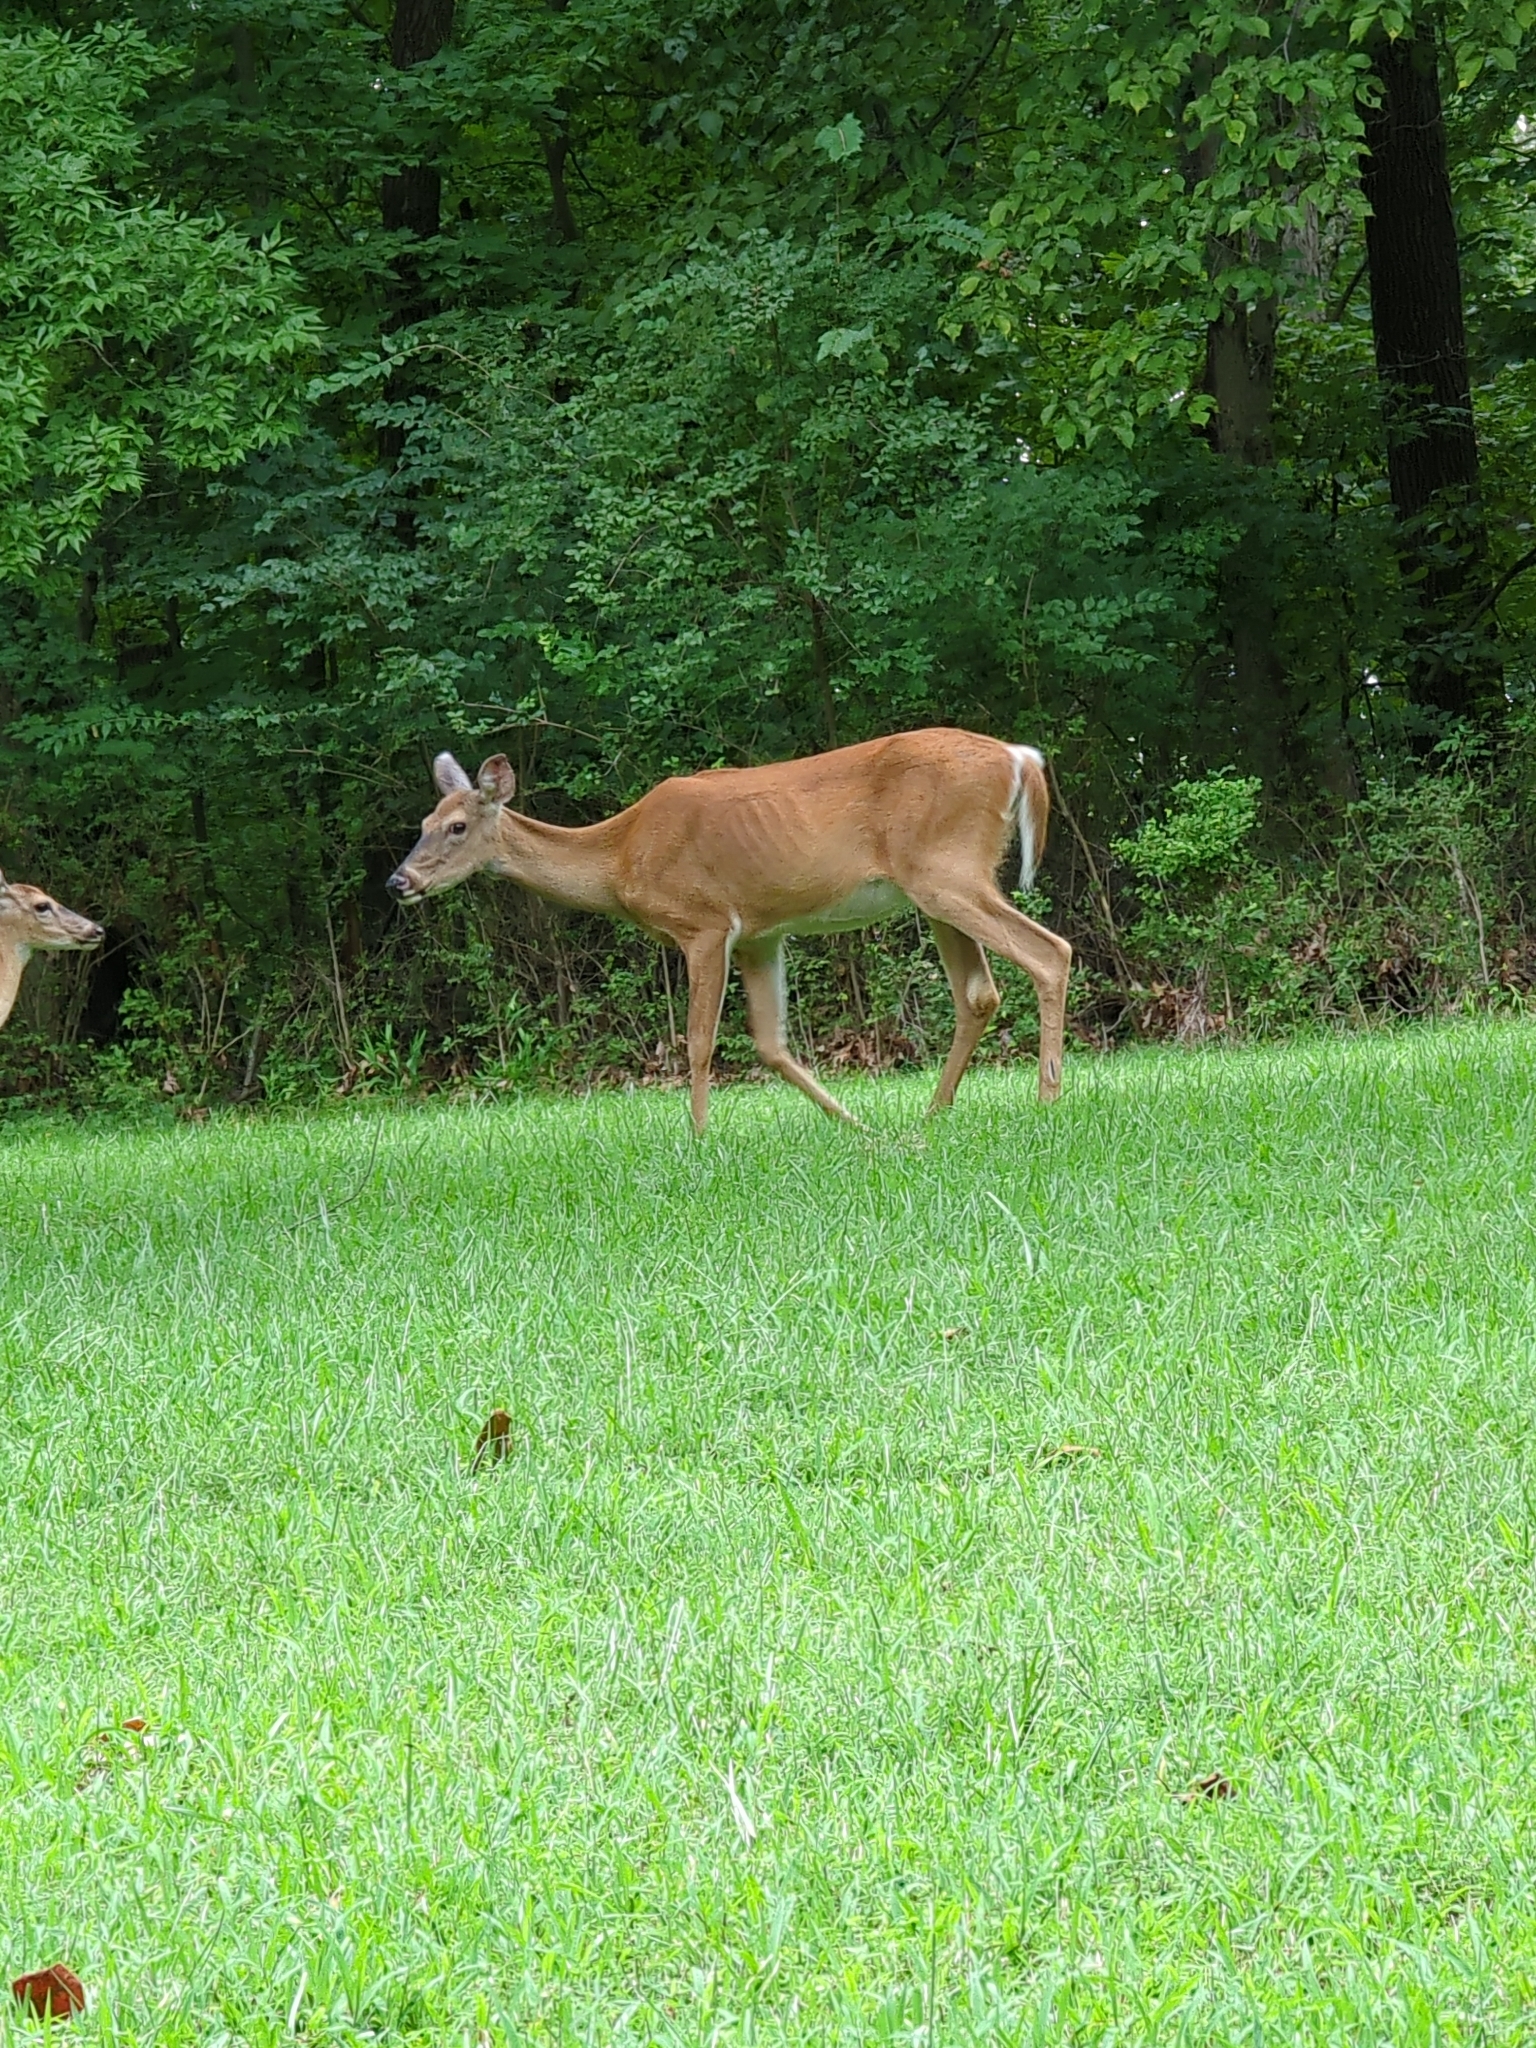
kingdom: Animalia
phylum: Chordata
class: Mammalia
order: Artiodactyla
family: Cervidae
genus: Odocoileus
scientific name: Odocoileus virginianus
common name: White-tailed deer
